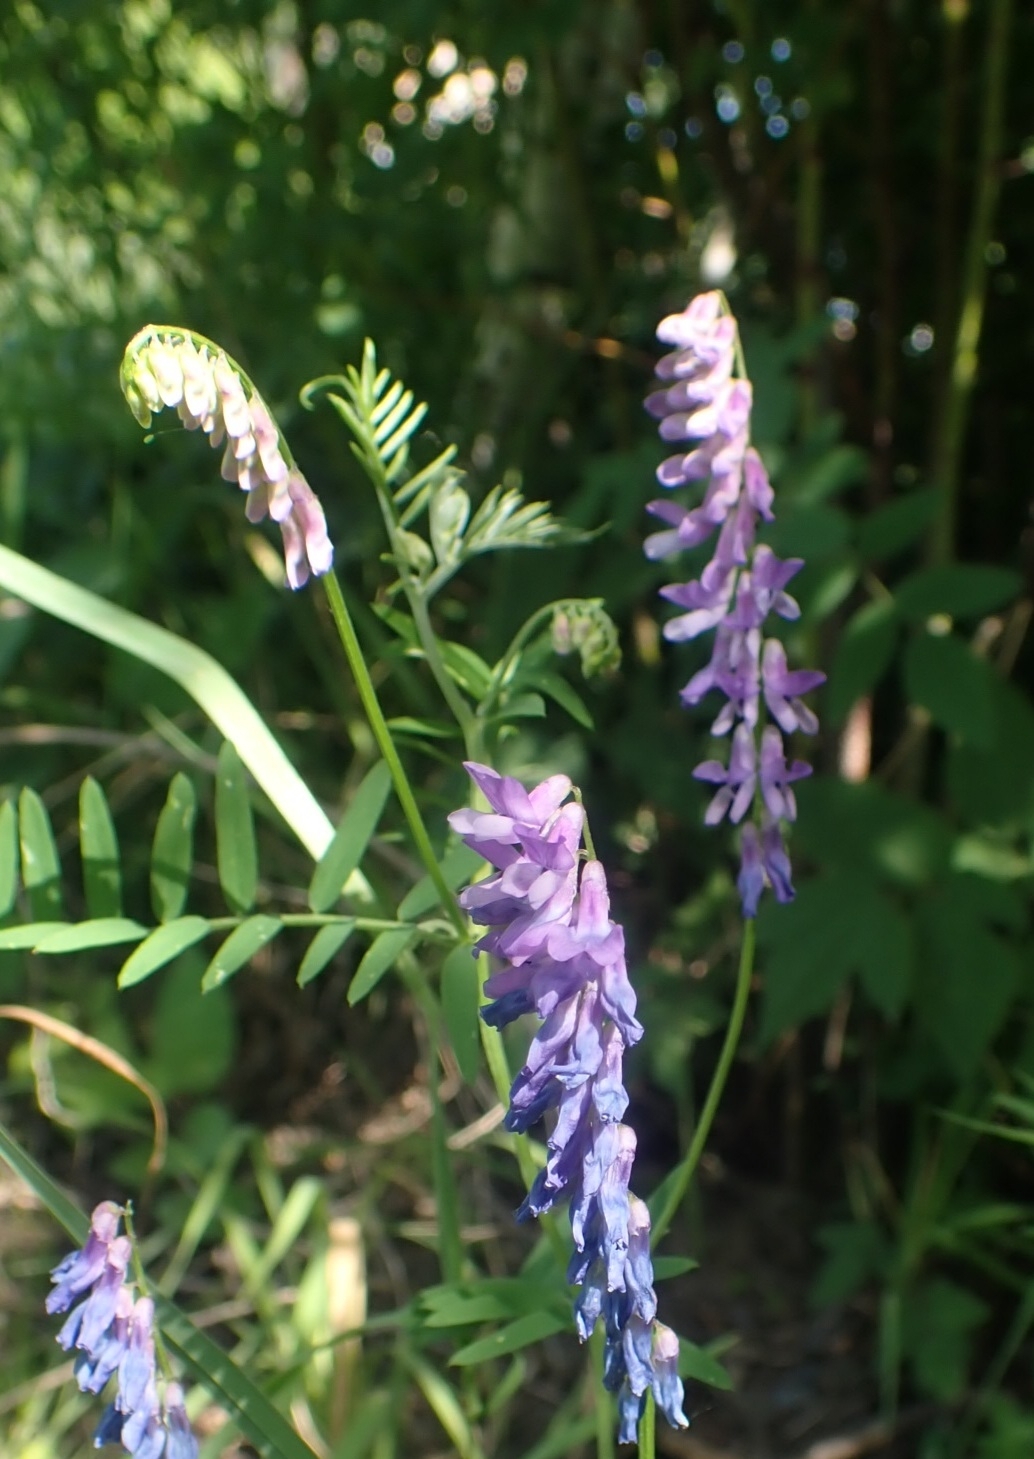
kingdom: Plantae
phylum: Tracheophyta
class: Magnoliopsida
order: Fabales
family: Fabaceae
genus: Vicia
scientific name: Vicia cracca
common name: Bird vetch
